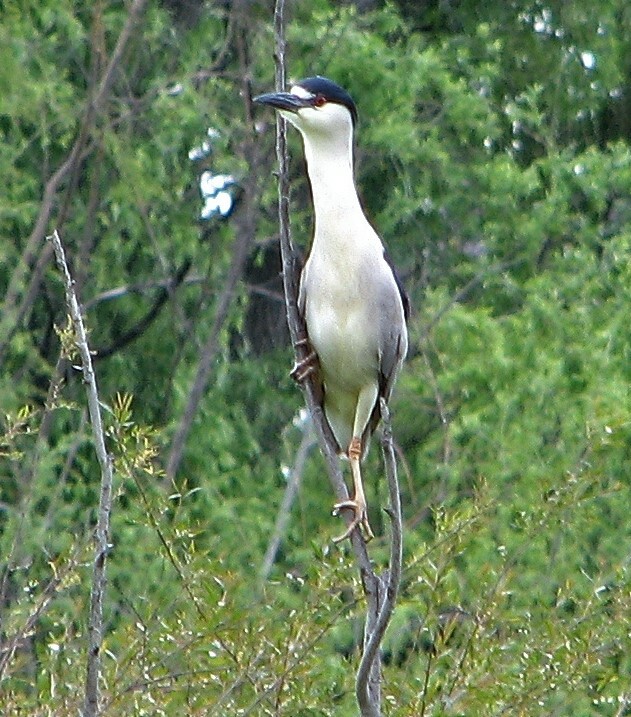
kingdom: Animalia
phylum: Chordata
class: Aves
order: Pelecaniformes
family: Ardeidae
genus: Nycticorax
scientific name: Nycticorax nycticorax
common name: Black-crowned night heron
